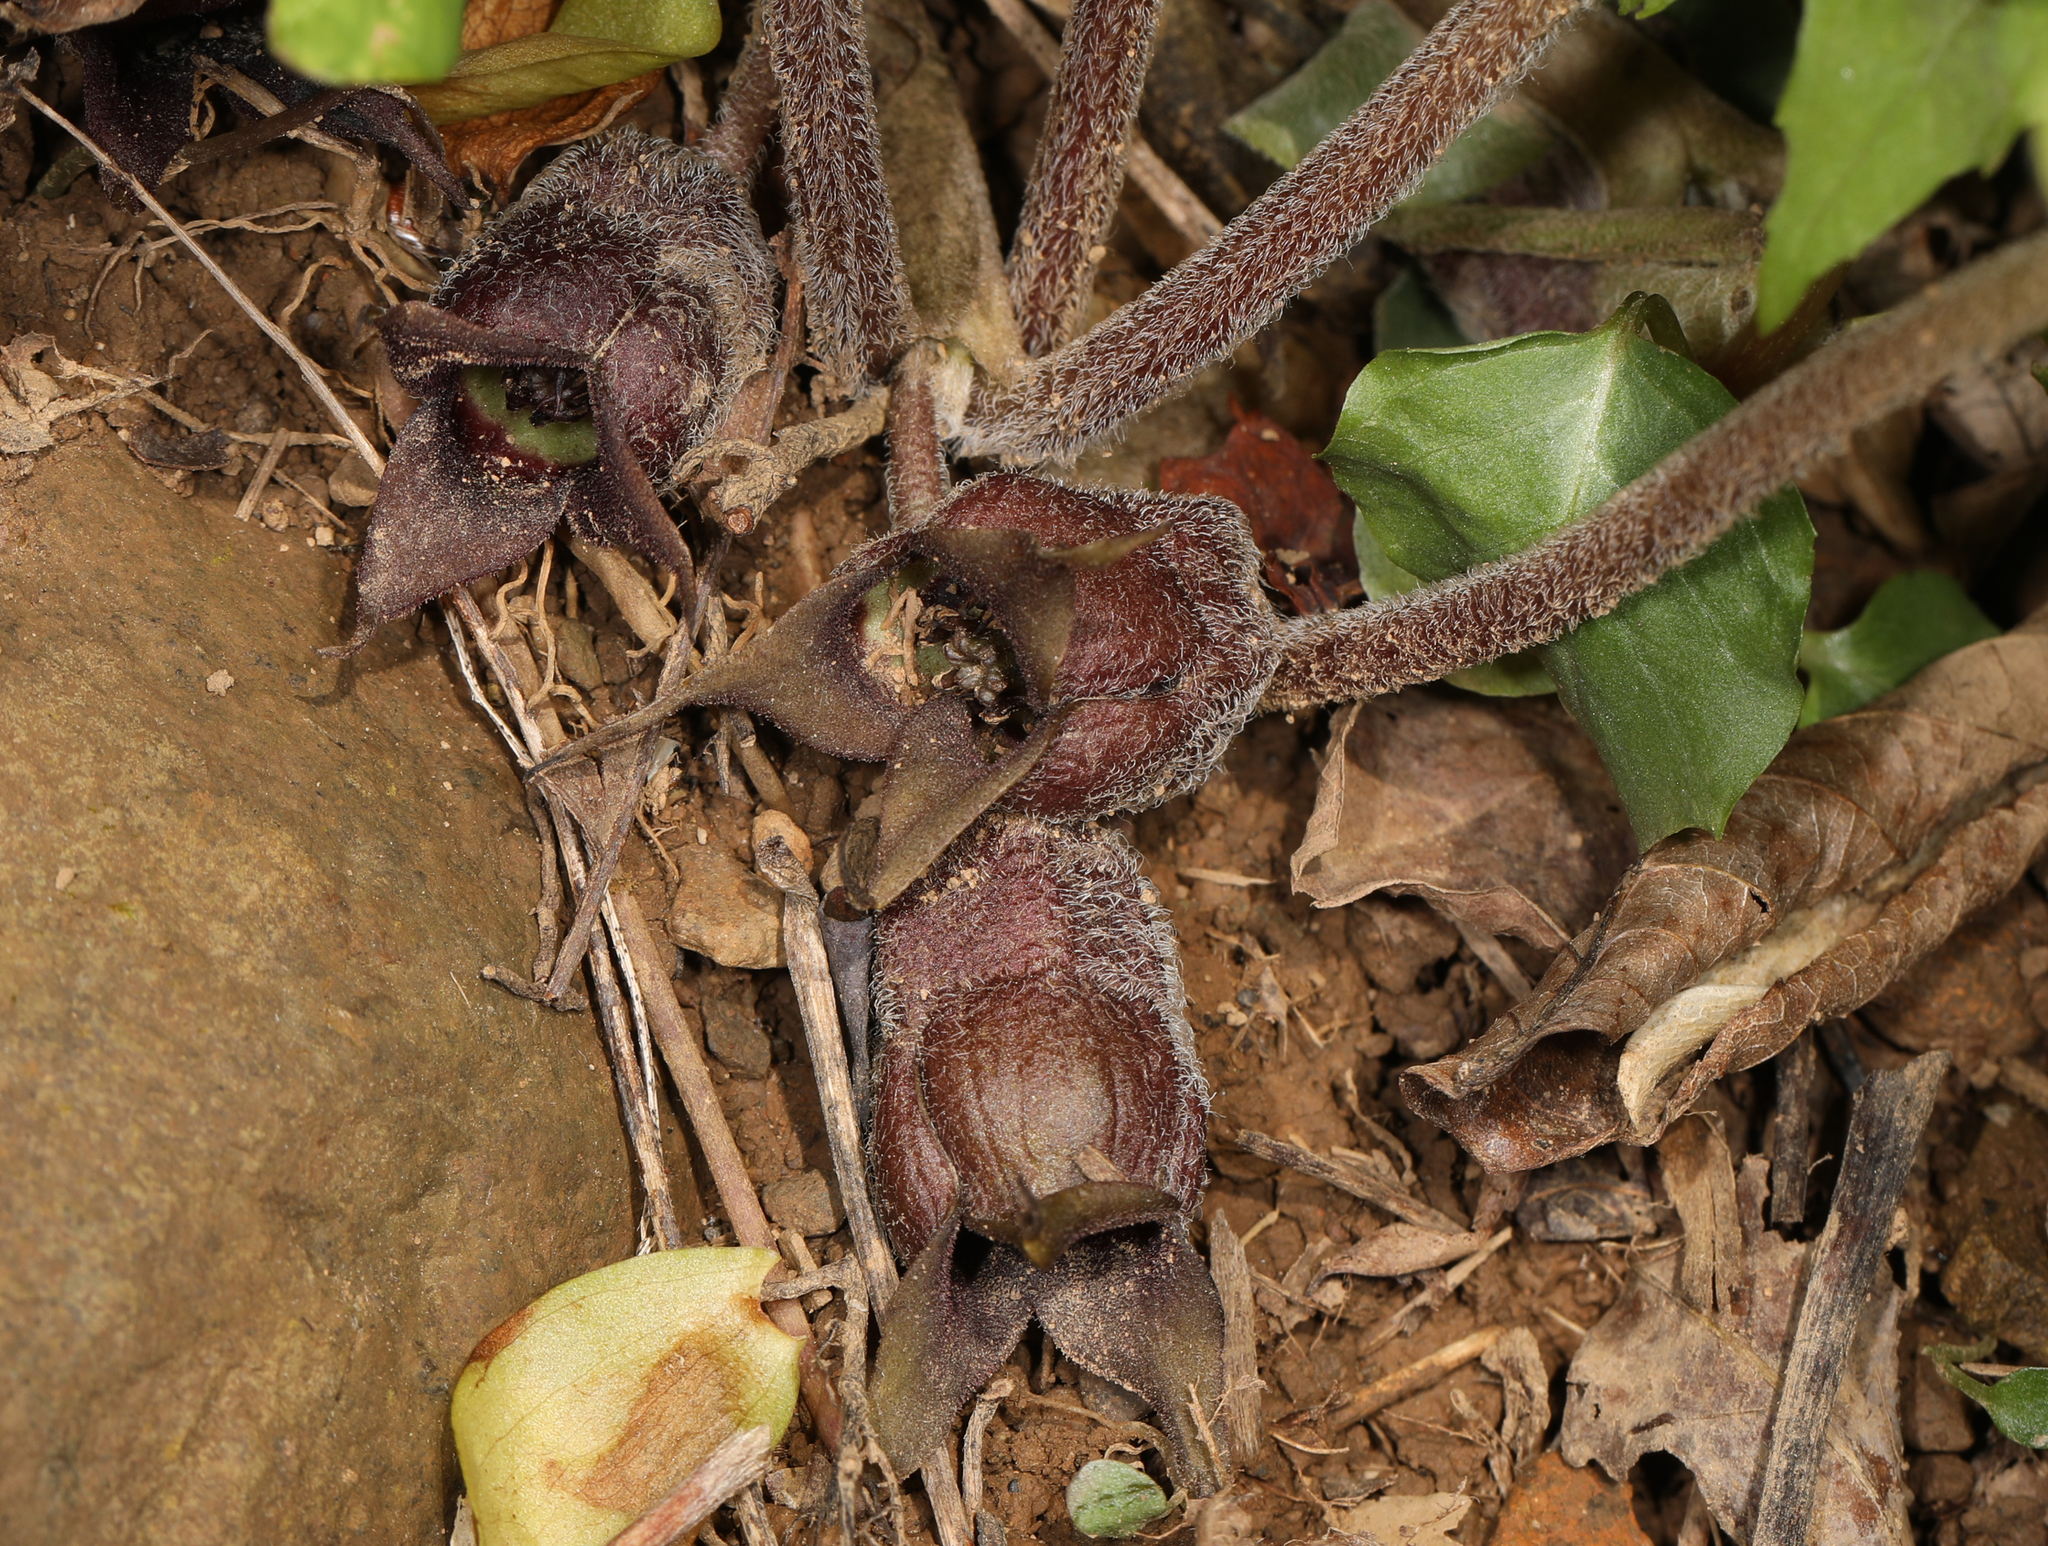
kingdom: Plantae
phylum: Tracheophyta
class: Magnoliopsida
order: Piperales
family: Aristolochiaceae
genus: Asarum
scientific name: Asarum canadense
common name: Wild ginger
